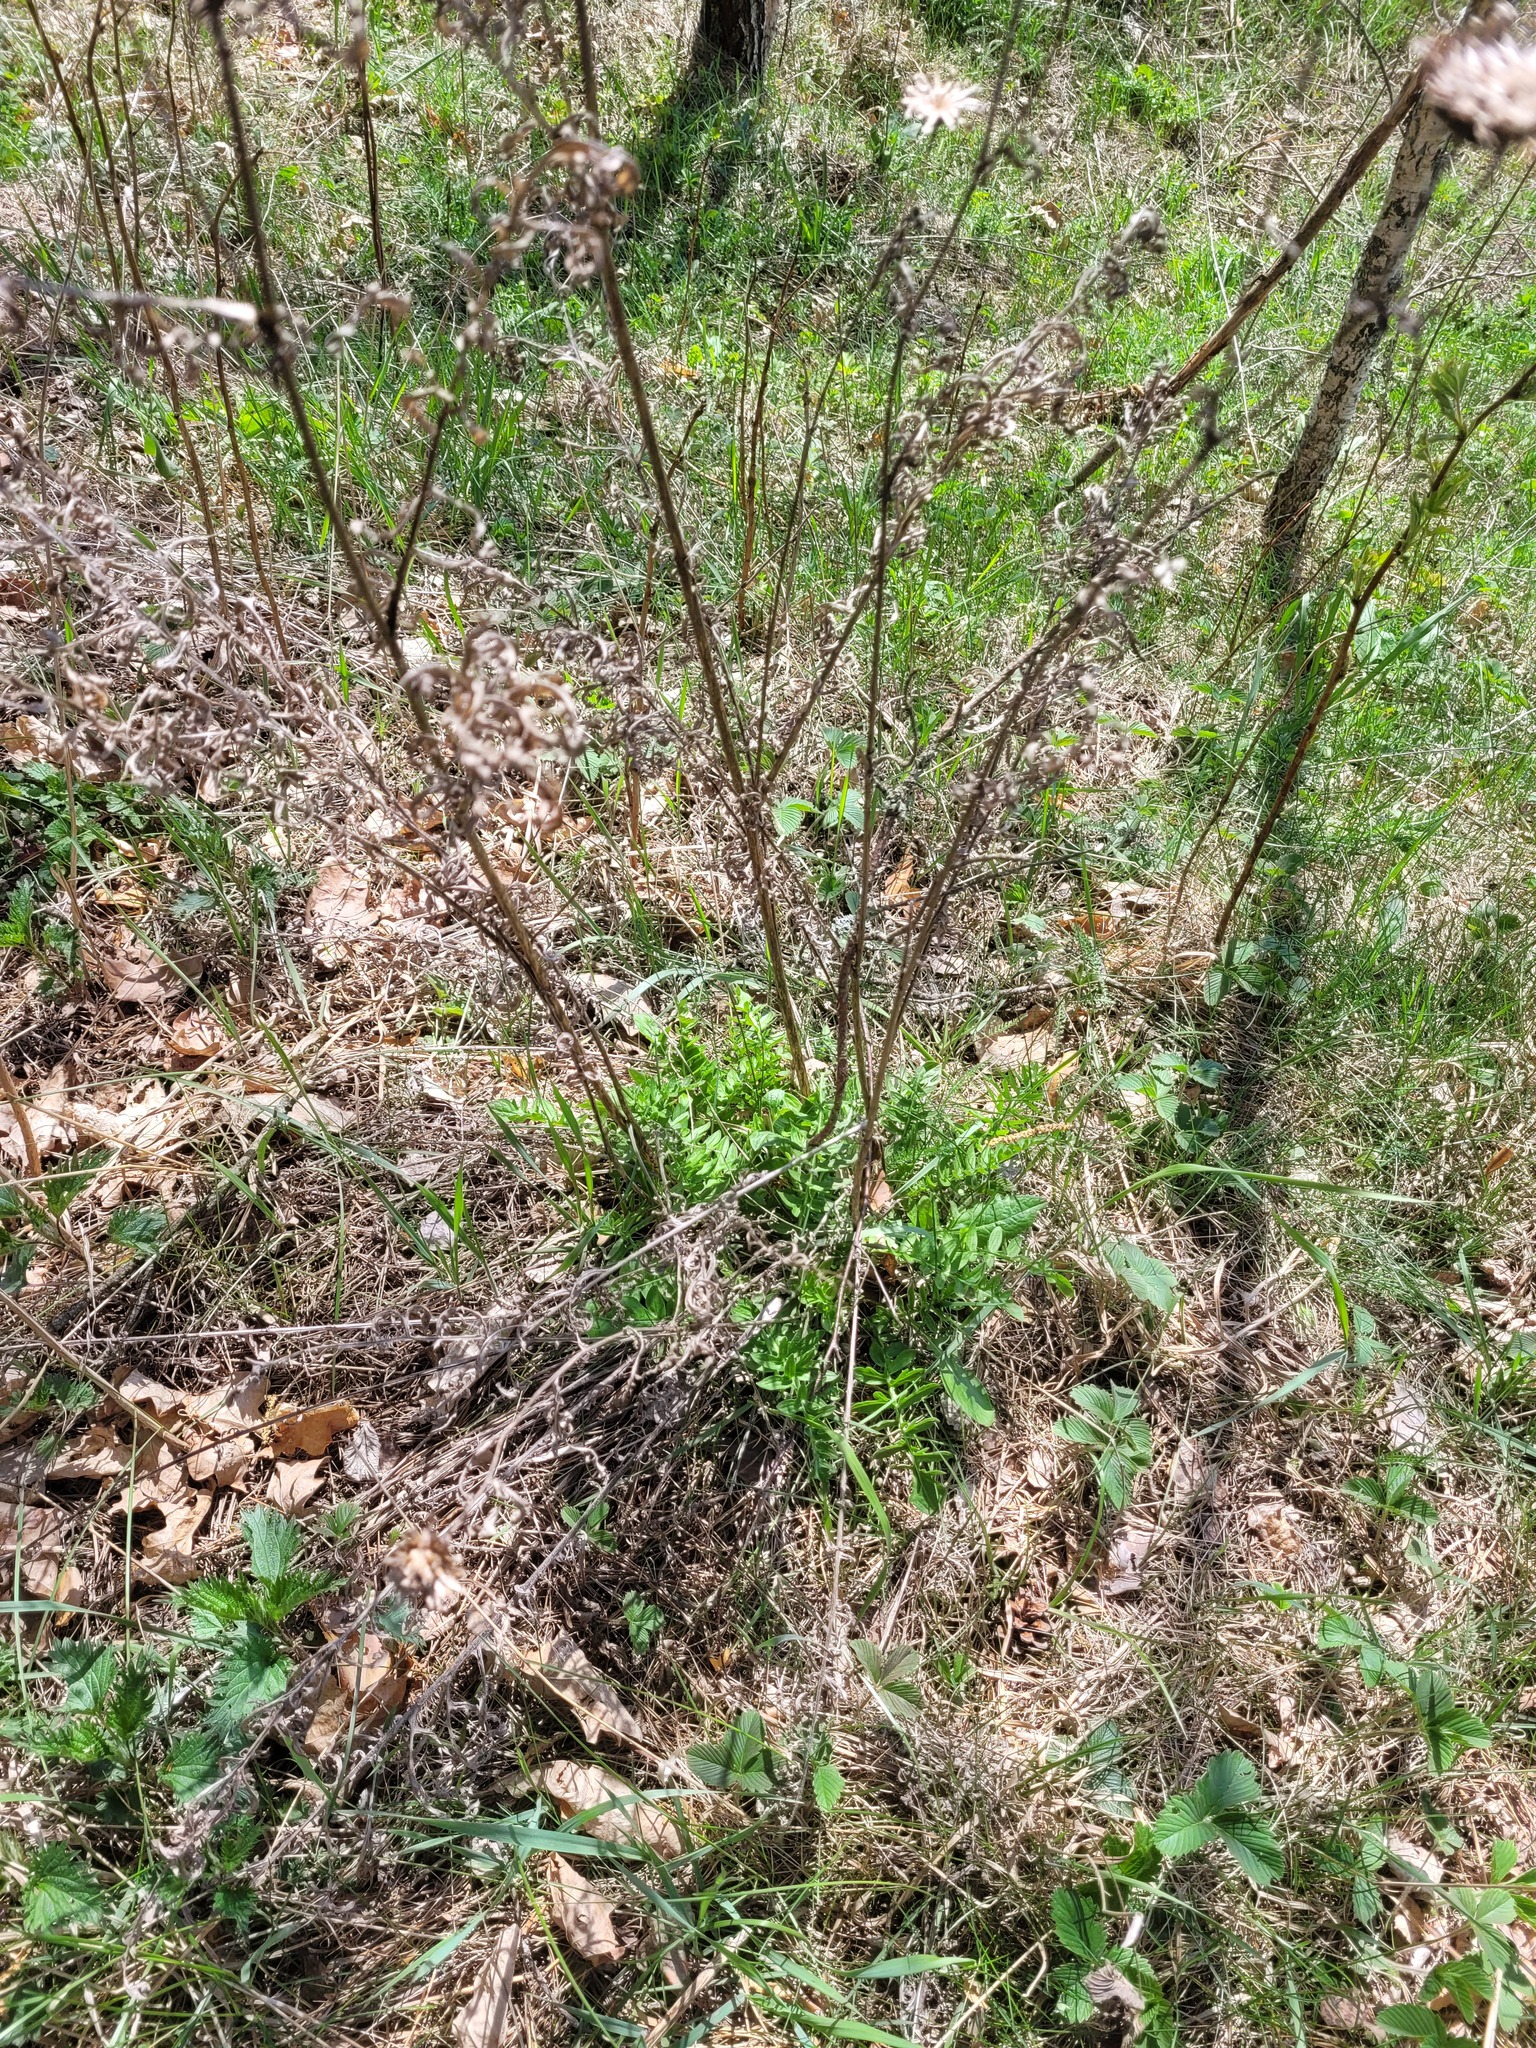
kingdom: Plantae
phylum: Tracheophyta
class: Magnoliopsida
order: Asterales
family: Asteraceae
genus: Centaurea
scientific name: Centaurea scabiosa
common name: Greater knapweed
